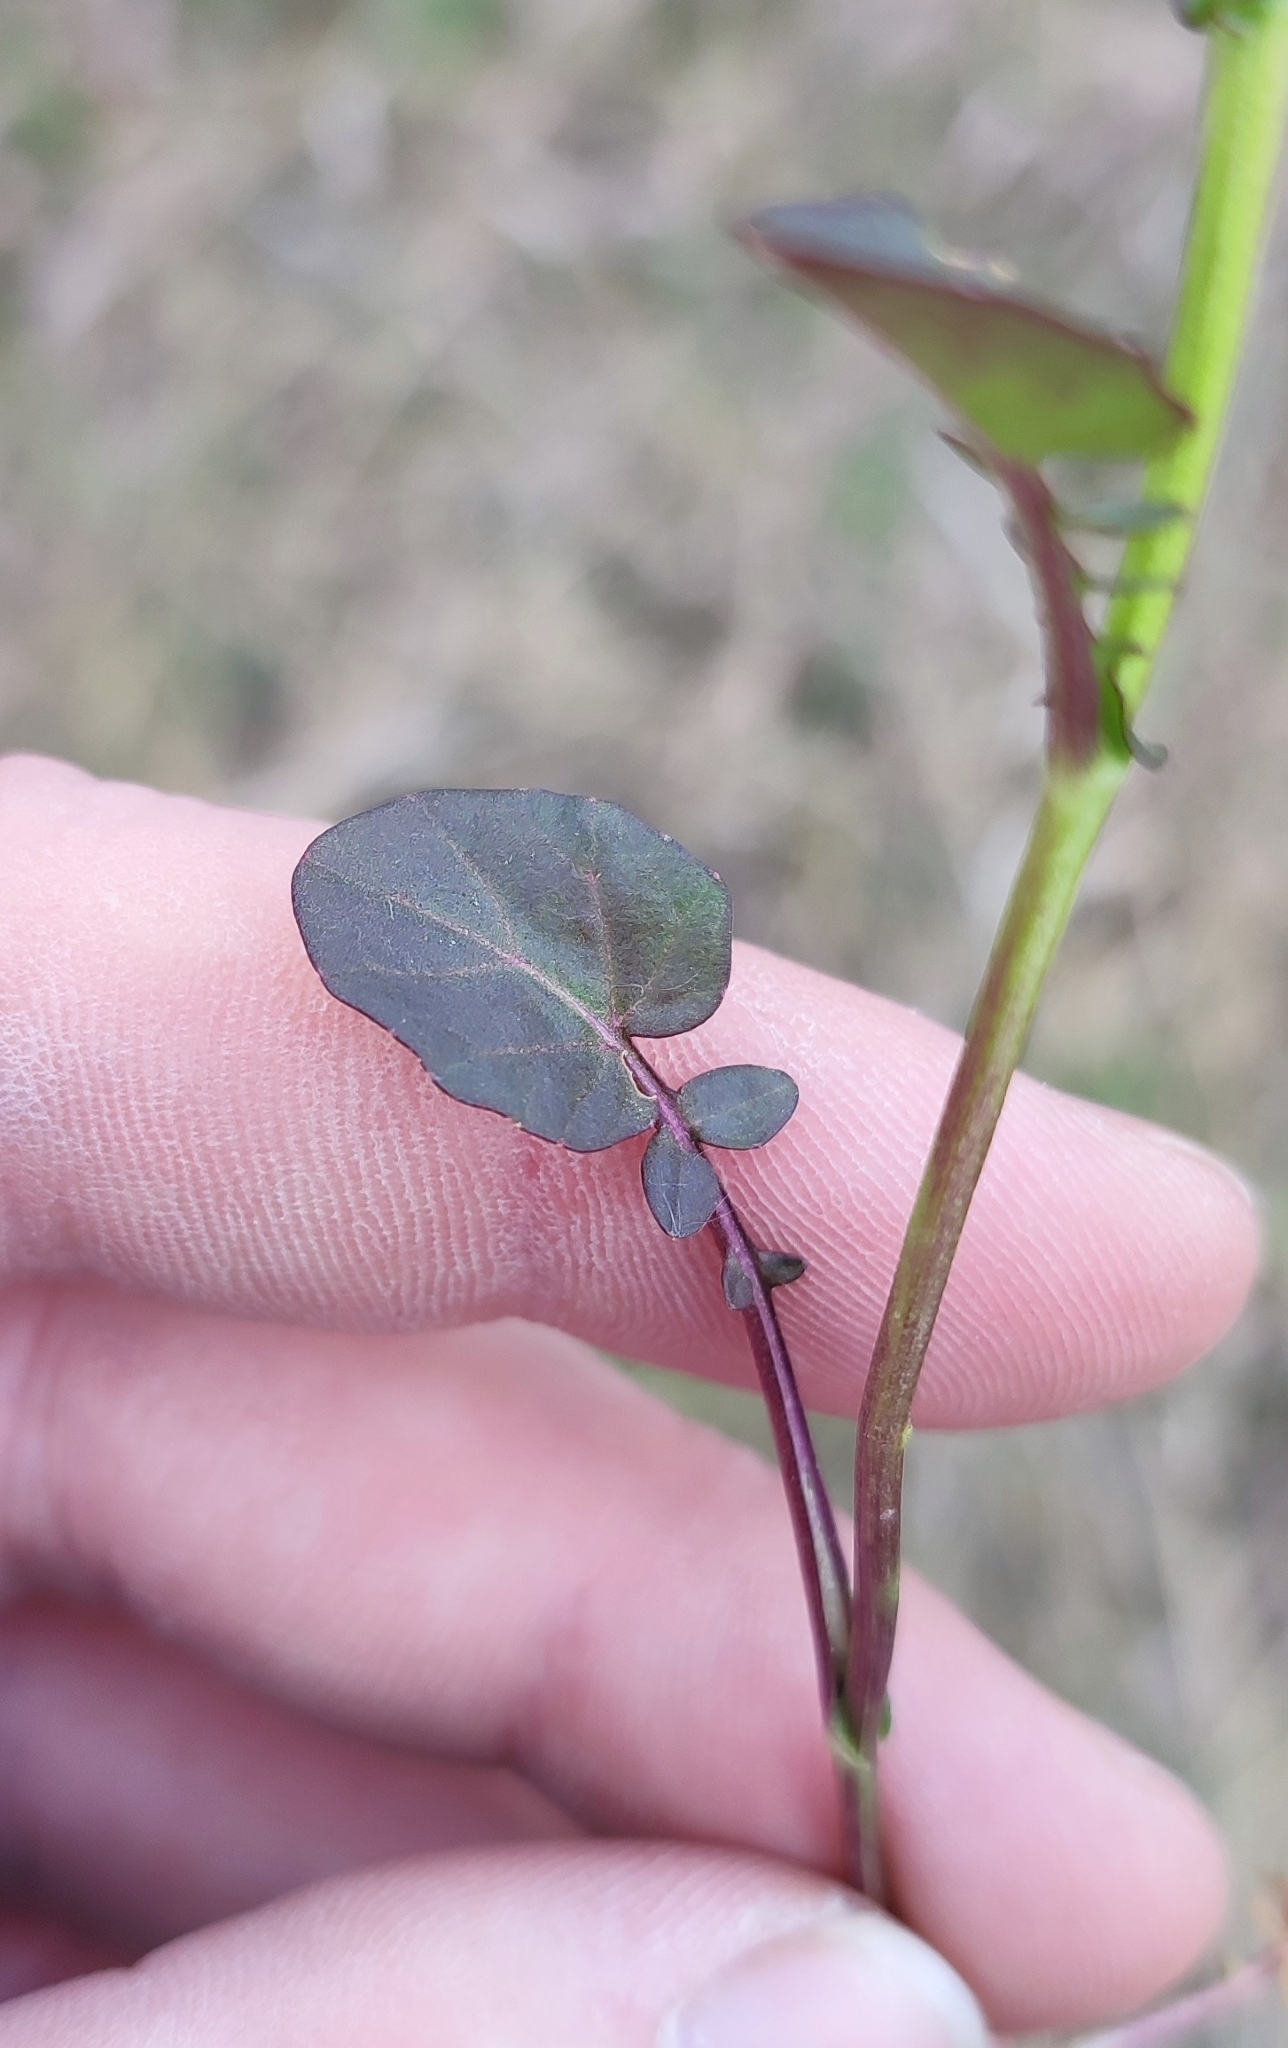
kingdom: Plantae
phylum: Tracheophyta
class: Magnoliopsida
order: Brassicales
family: Brassicaceae
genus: Barbarea
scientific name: Barbarea vulgaris
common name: Cressy-greens
